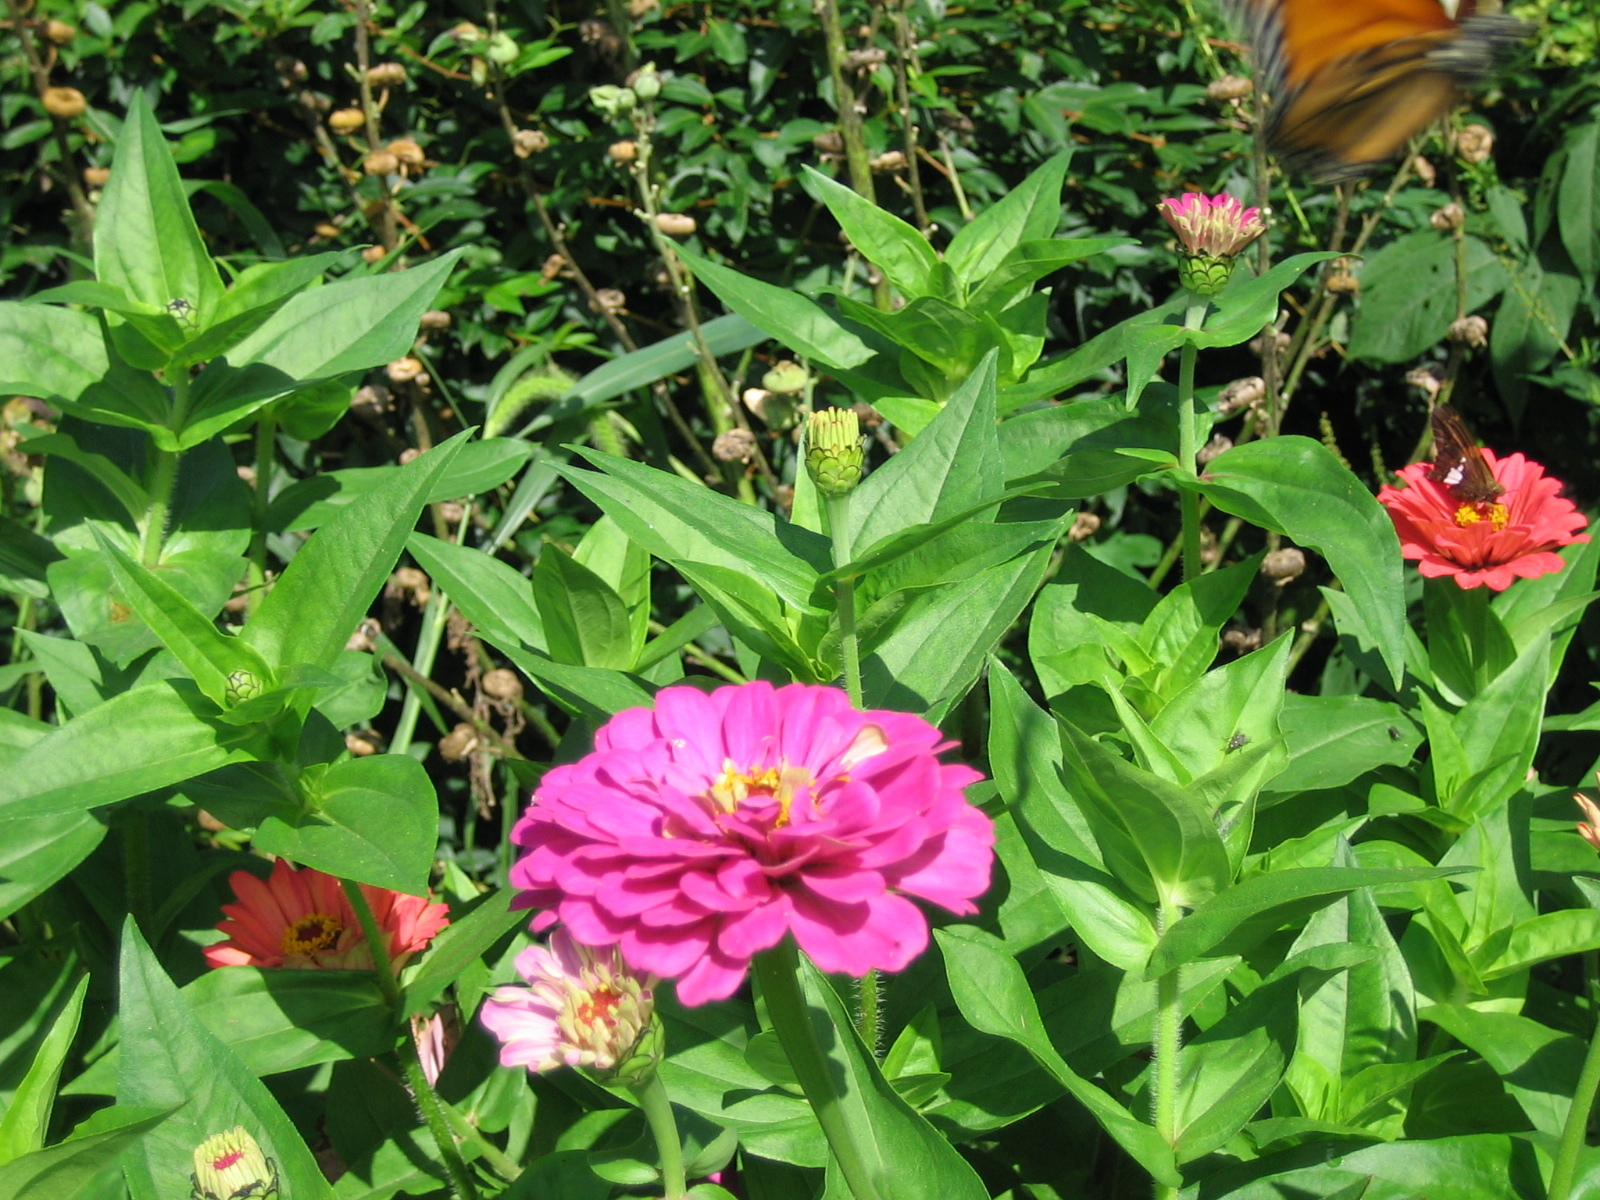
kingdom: Animalia
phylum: Arthropoda
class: Insecta
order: Lepidoptera
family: Nymphalidae
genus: Danaus
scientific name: Danaus plexippus
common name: Monarch
